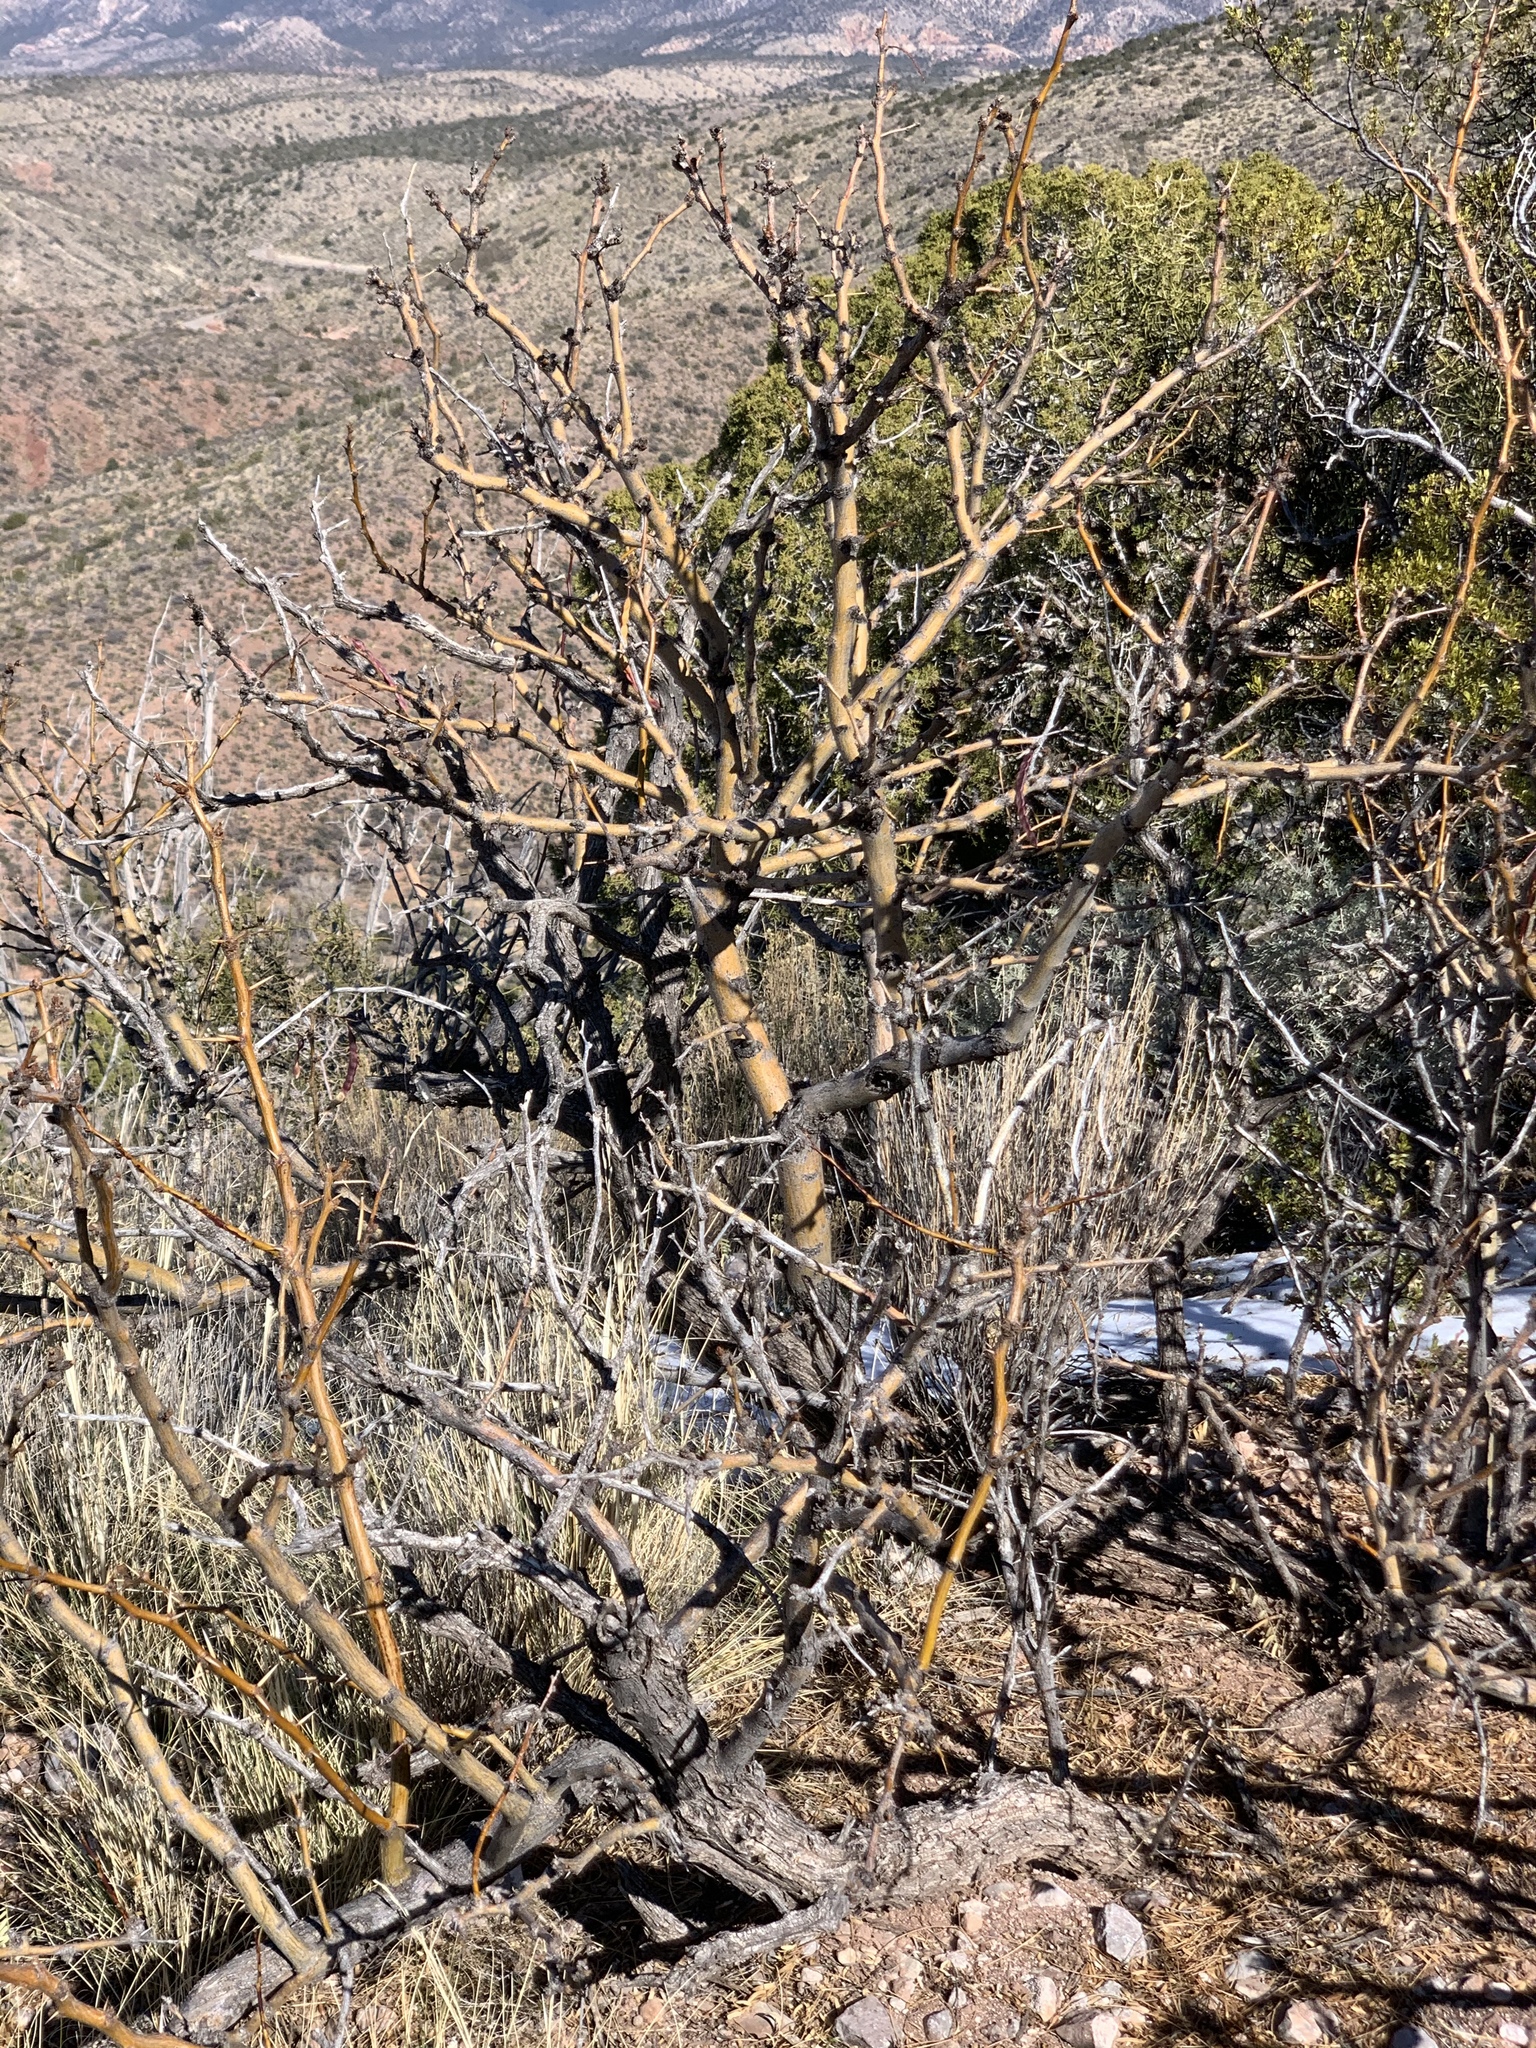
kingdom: Plantae
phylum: Tracheophyta
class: Magnoliopsida
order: Fabales
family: Fabaceae
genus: Prosopis
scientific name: Prosopis glandulosa
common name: Honey mesquite
